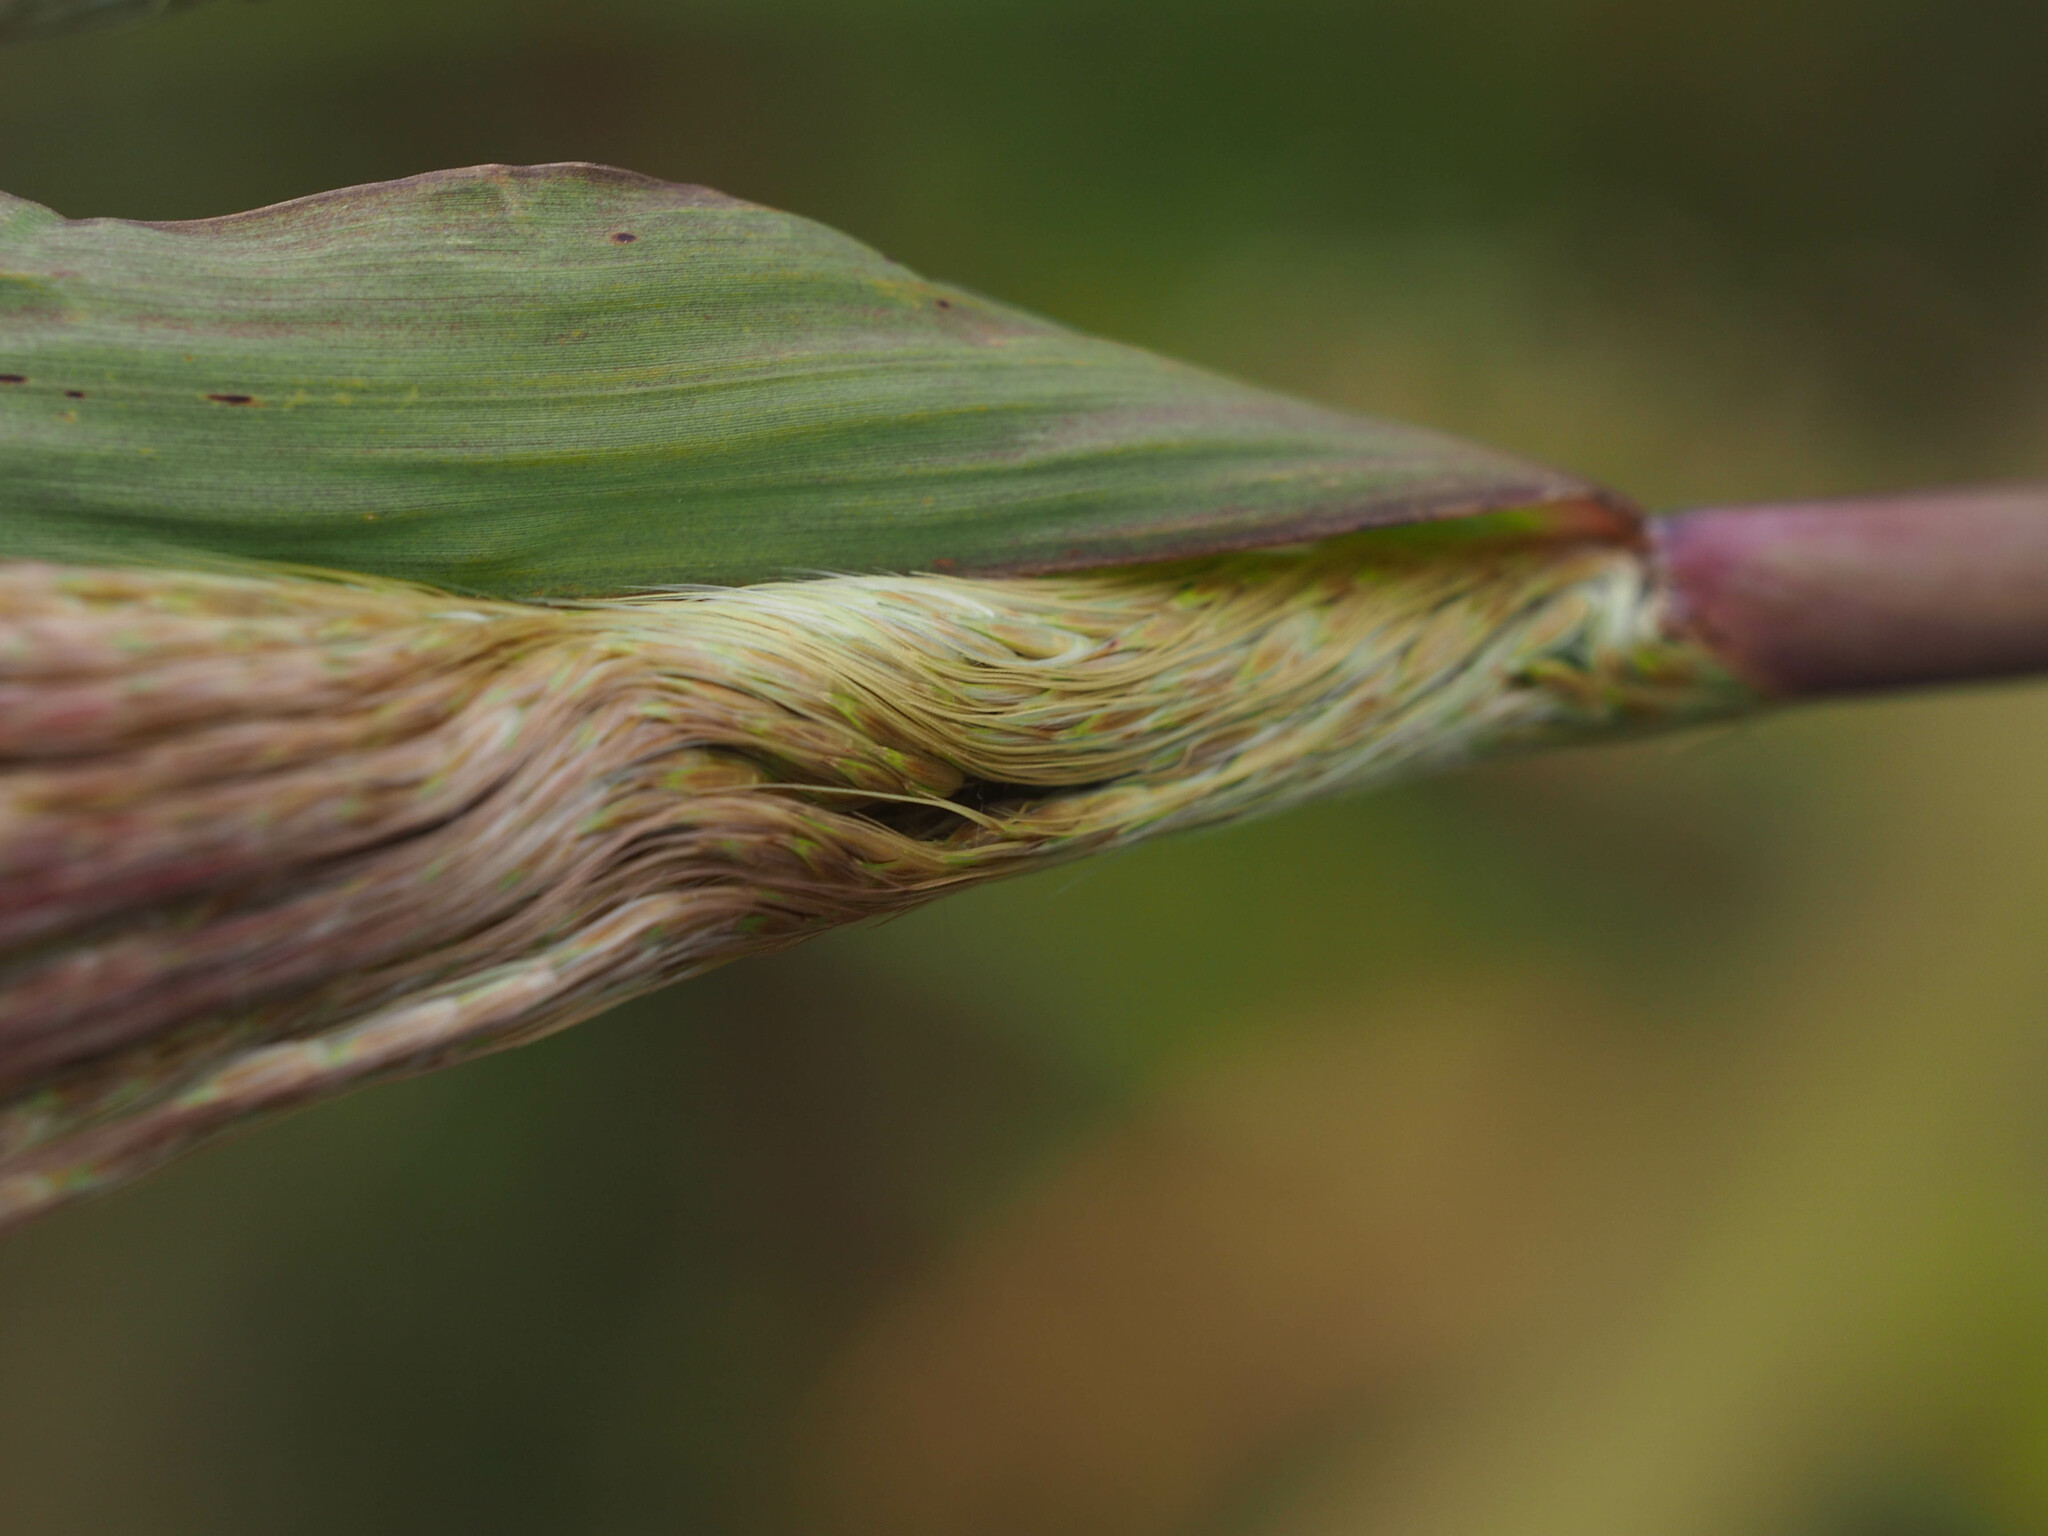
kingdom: Plantae
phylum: Tracheophyta
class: Liliopsida
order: Poales
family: Poaceae
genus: Erianthus
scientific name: Erianthus giganteus
